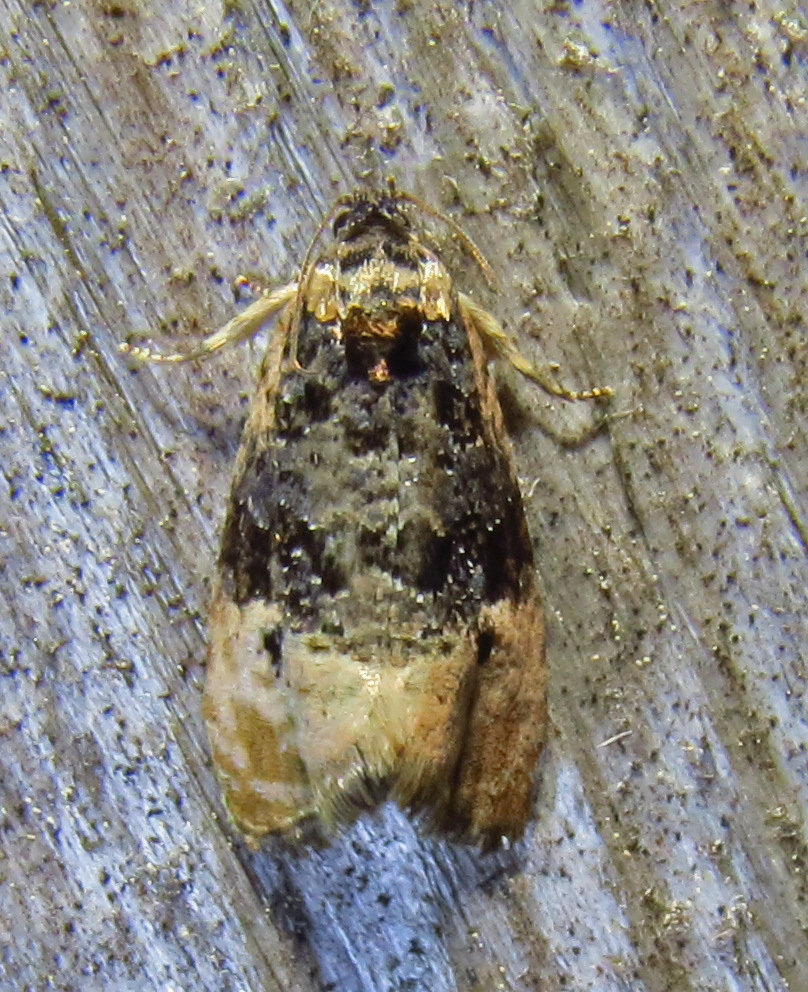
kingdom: Animalia
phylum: Arthropoda
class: Insecta
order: Lepidoptera
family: Tortricidae
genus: Hedya
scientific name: Hedya separatana
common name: Pink-washed leafroller moth
